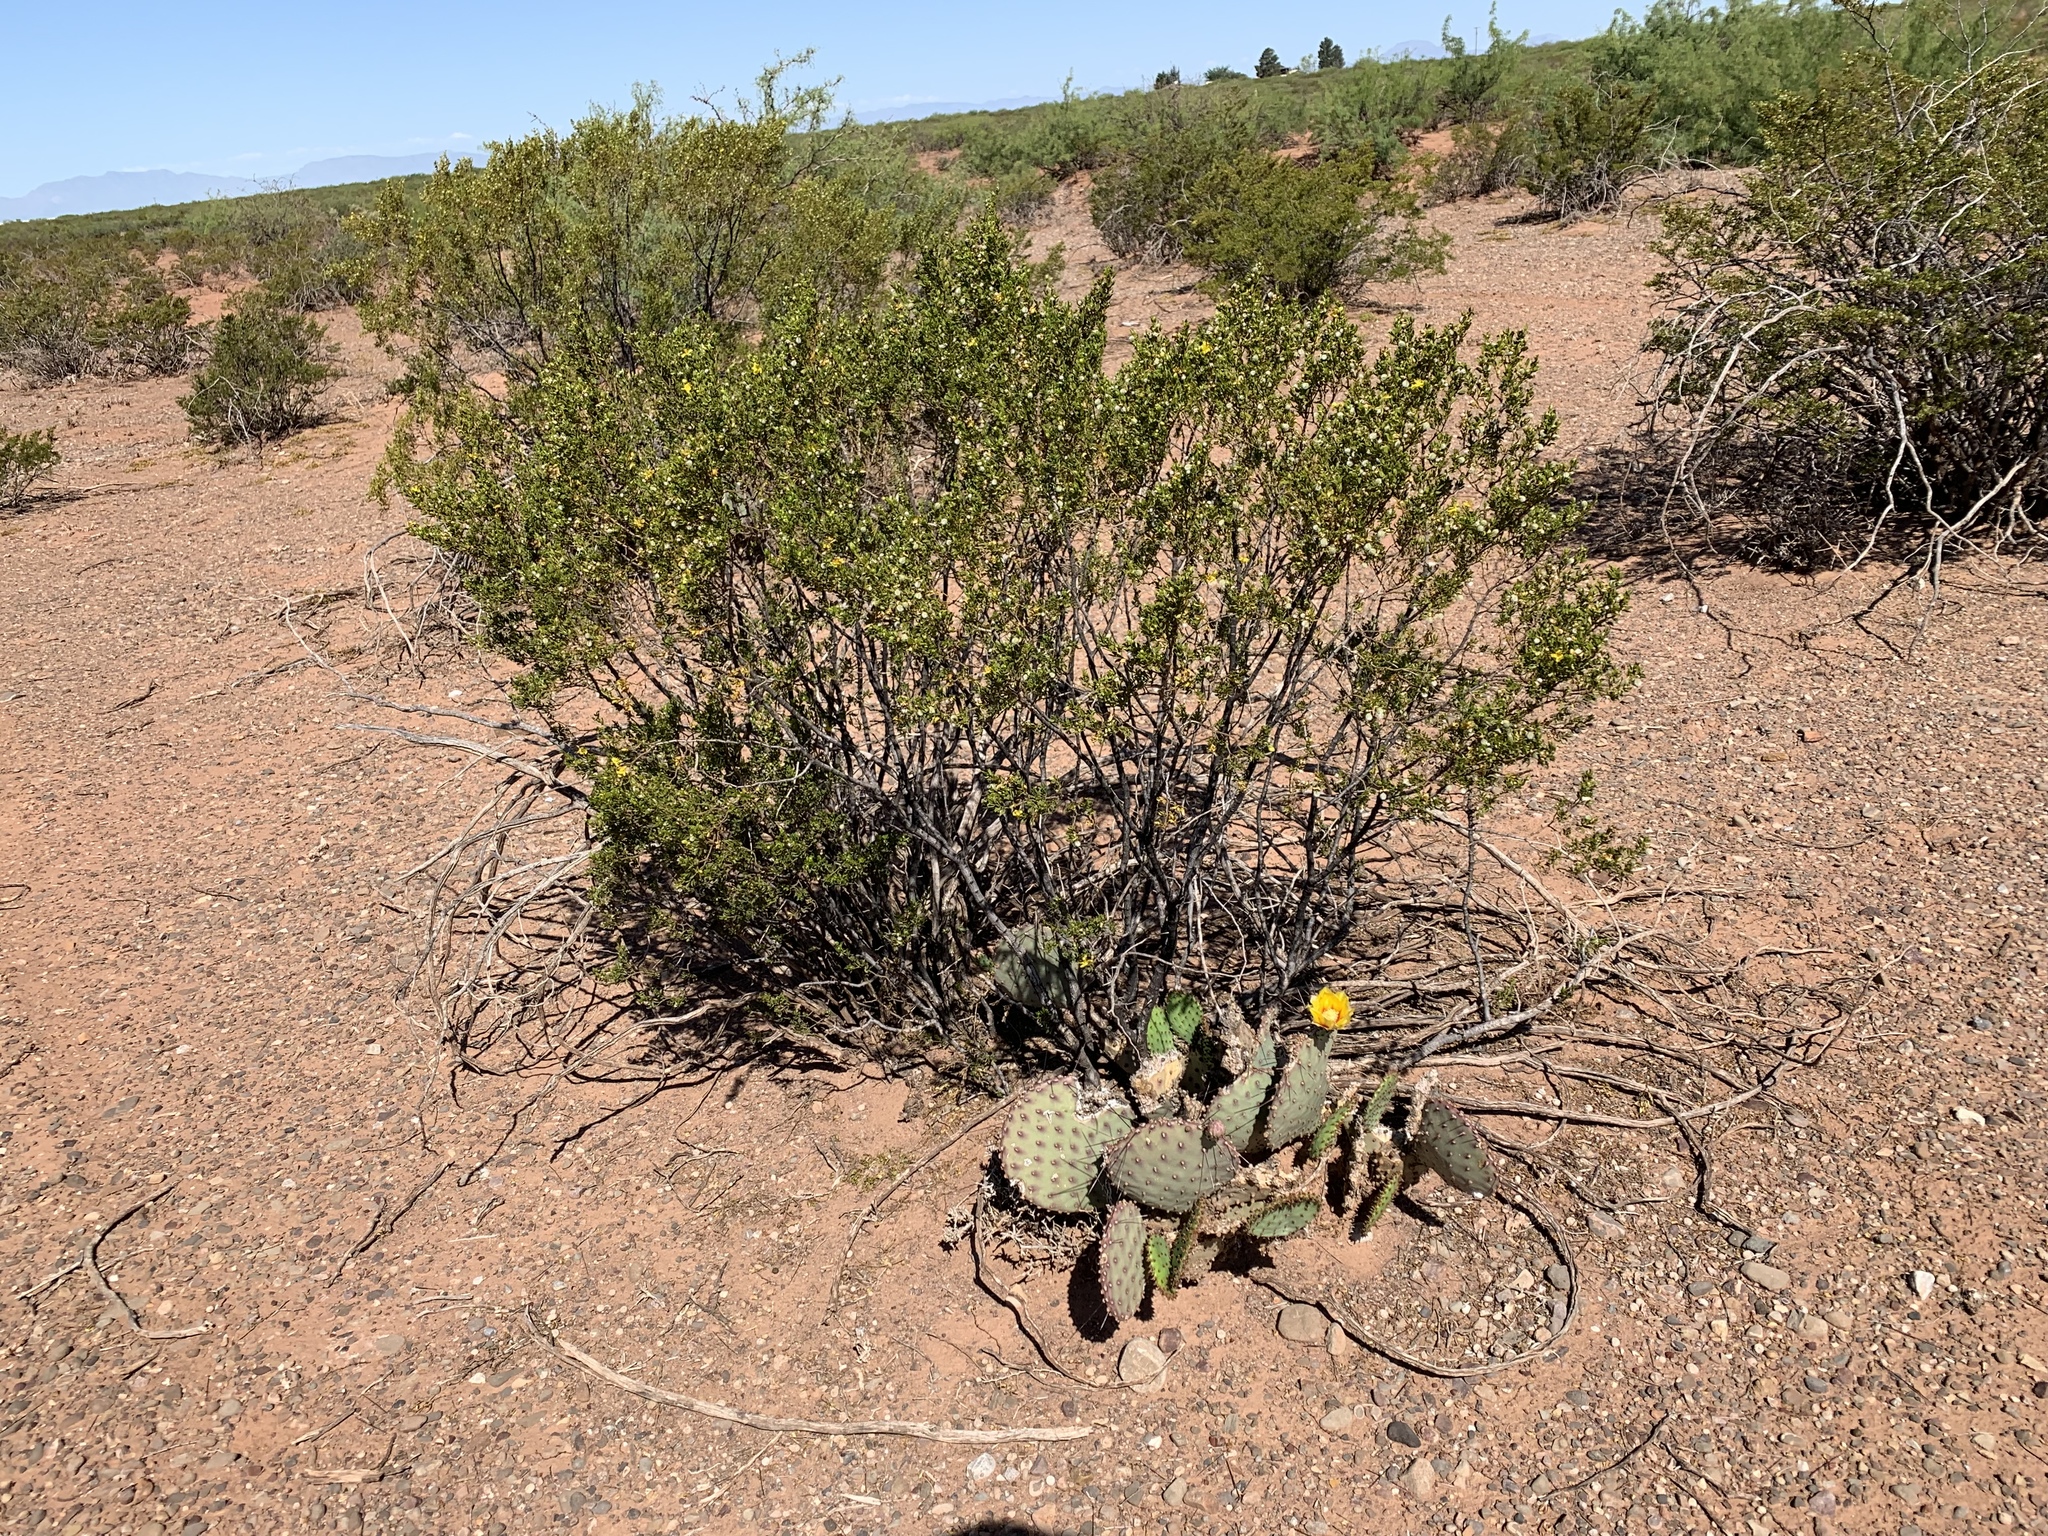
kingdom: Plantae
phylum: Tracheophyta
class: Magnoliopsida
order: Zygophyllales
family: Zygophyllaceae
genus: Larrea
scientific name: Larrea tridentata
